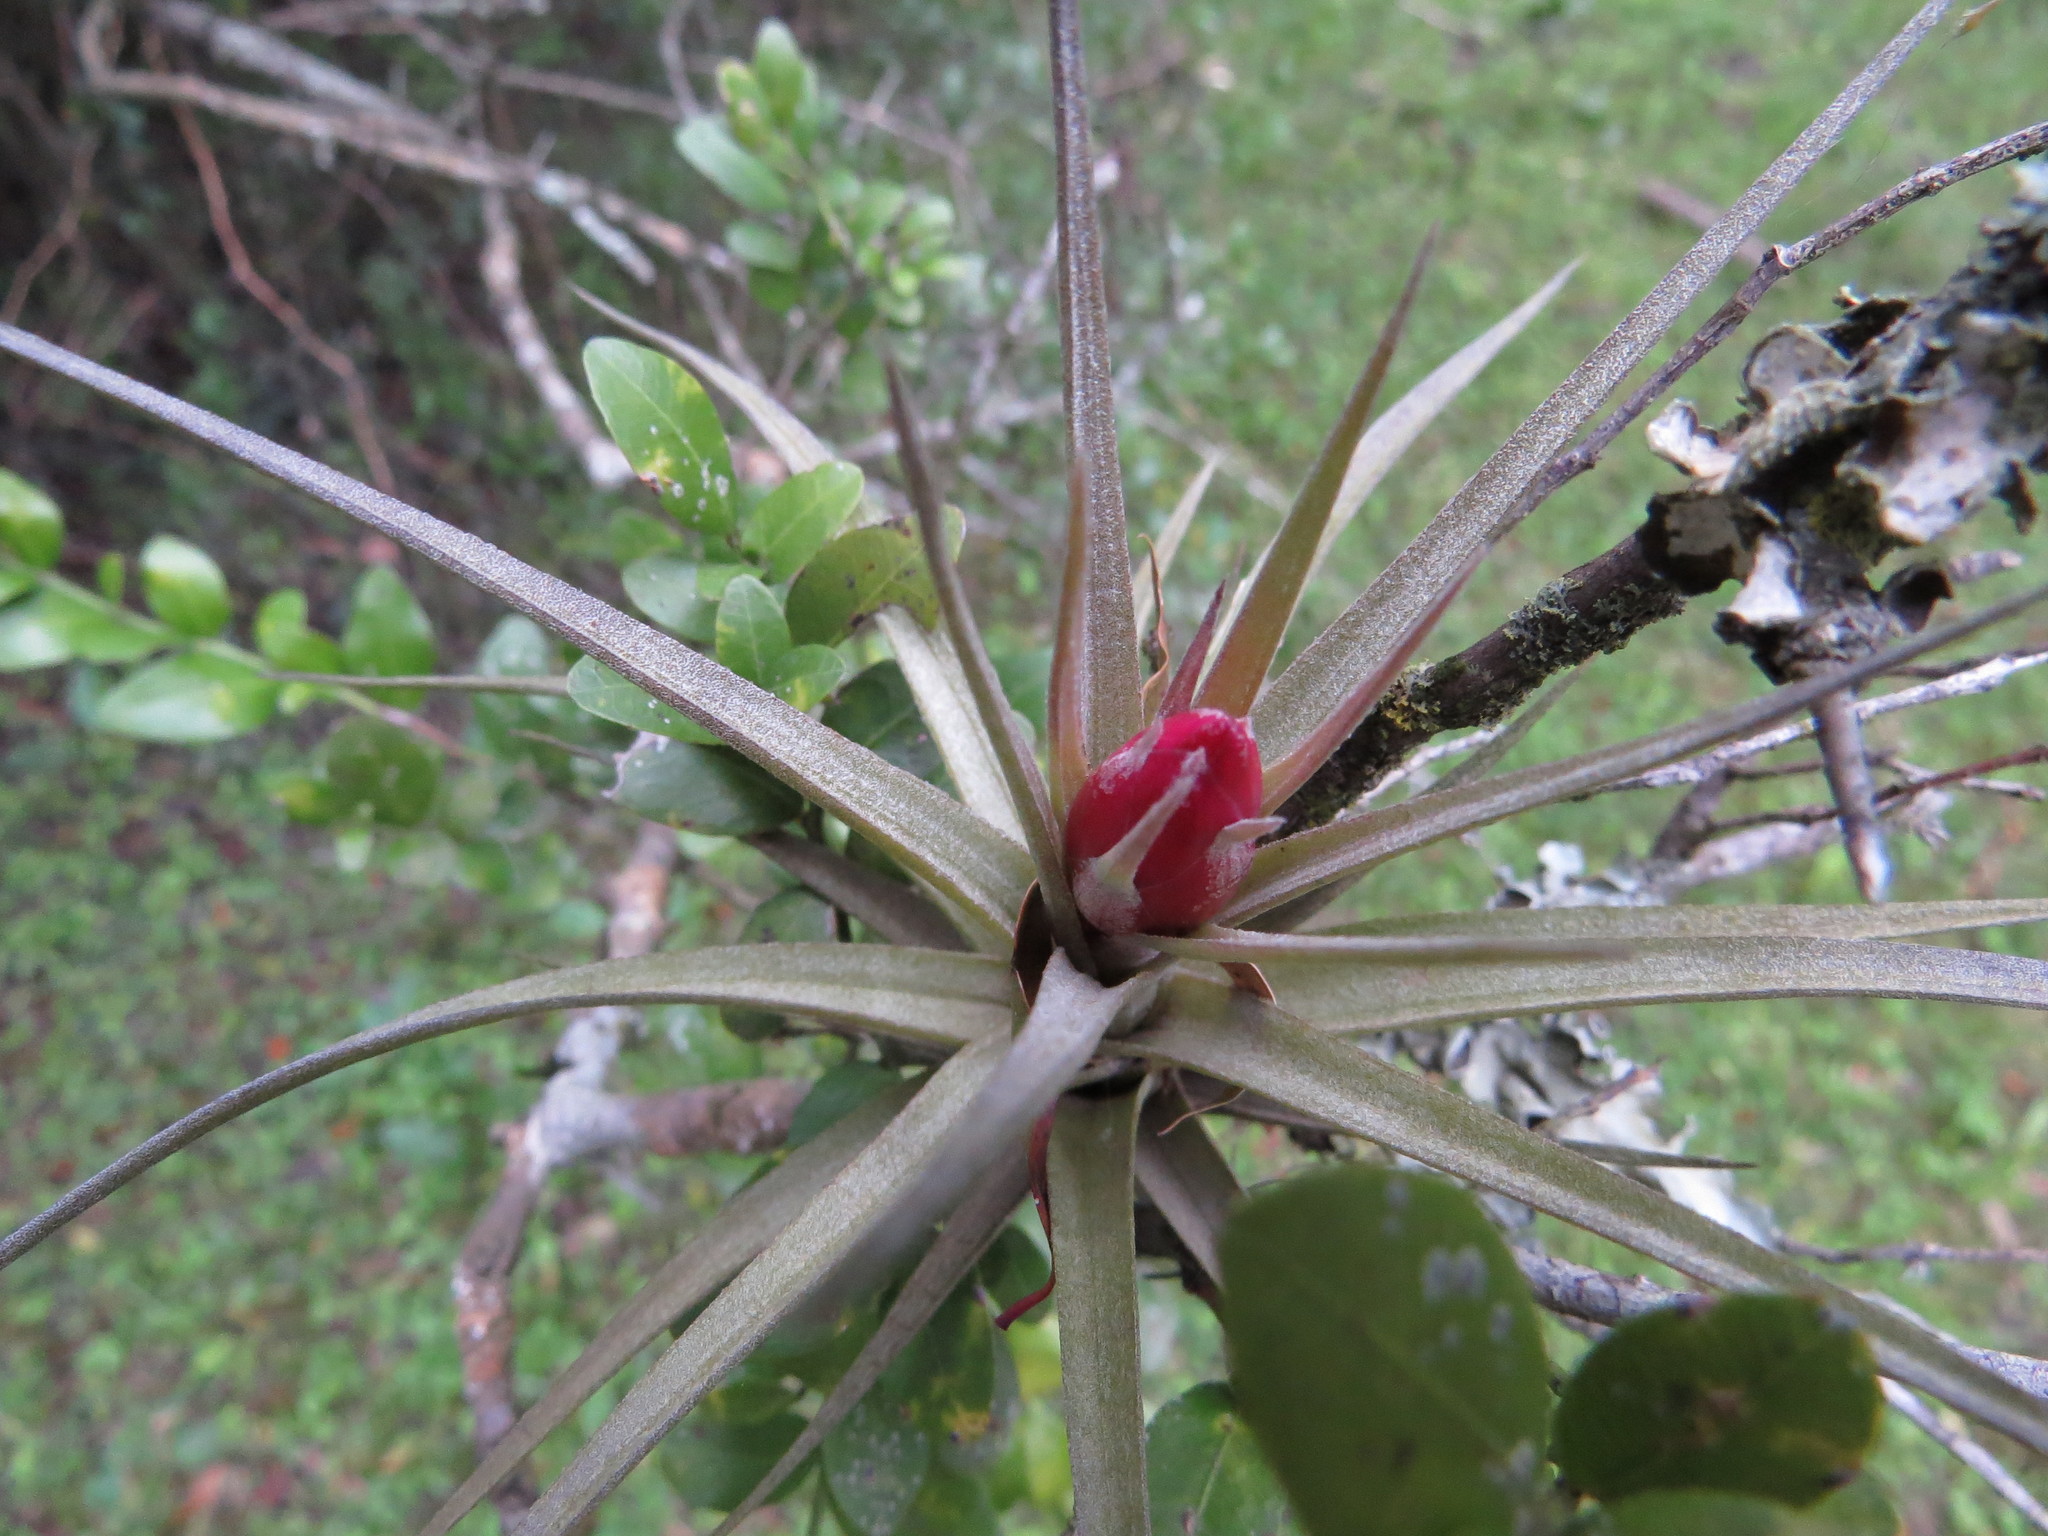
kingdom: Plantae
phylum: Tracheophyta
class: Liliopsida
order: Poales
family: Bromeliaceae
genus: Tillandsia
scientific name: Tillandsia aeranthos
